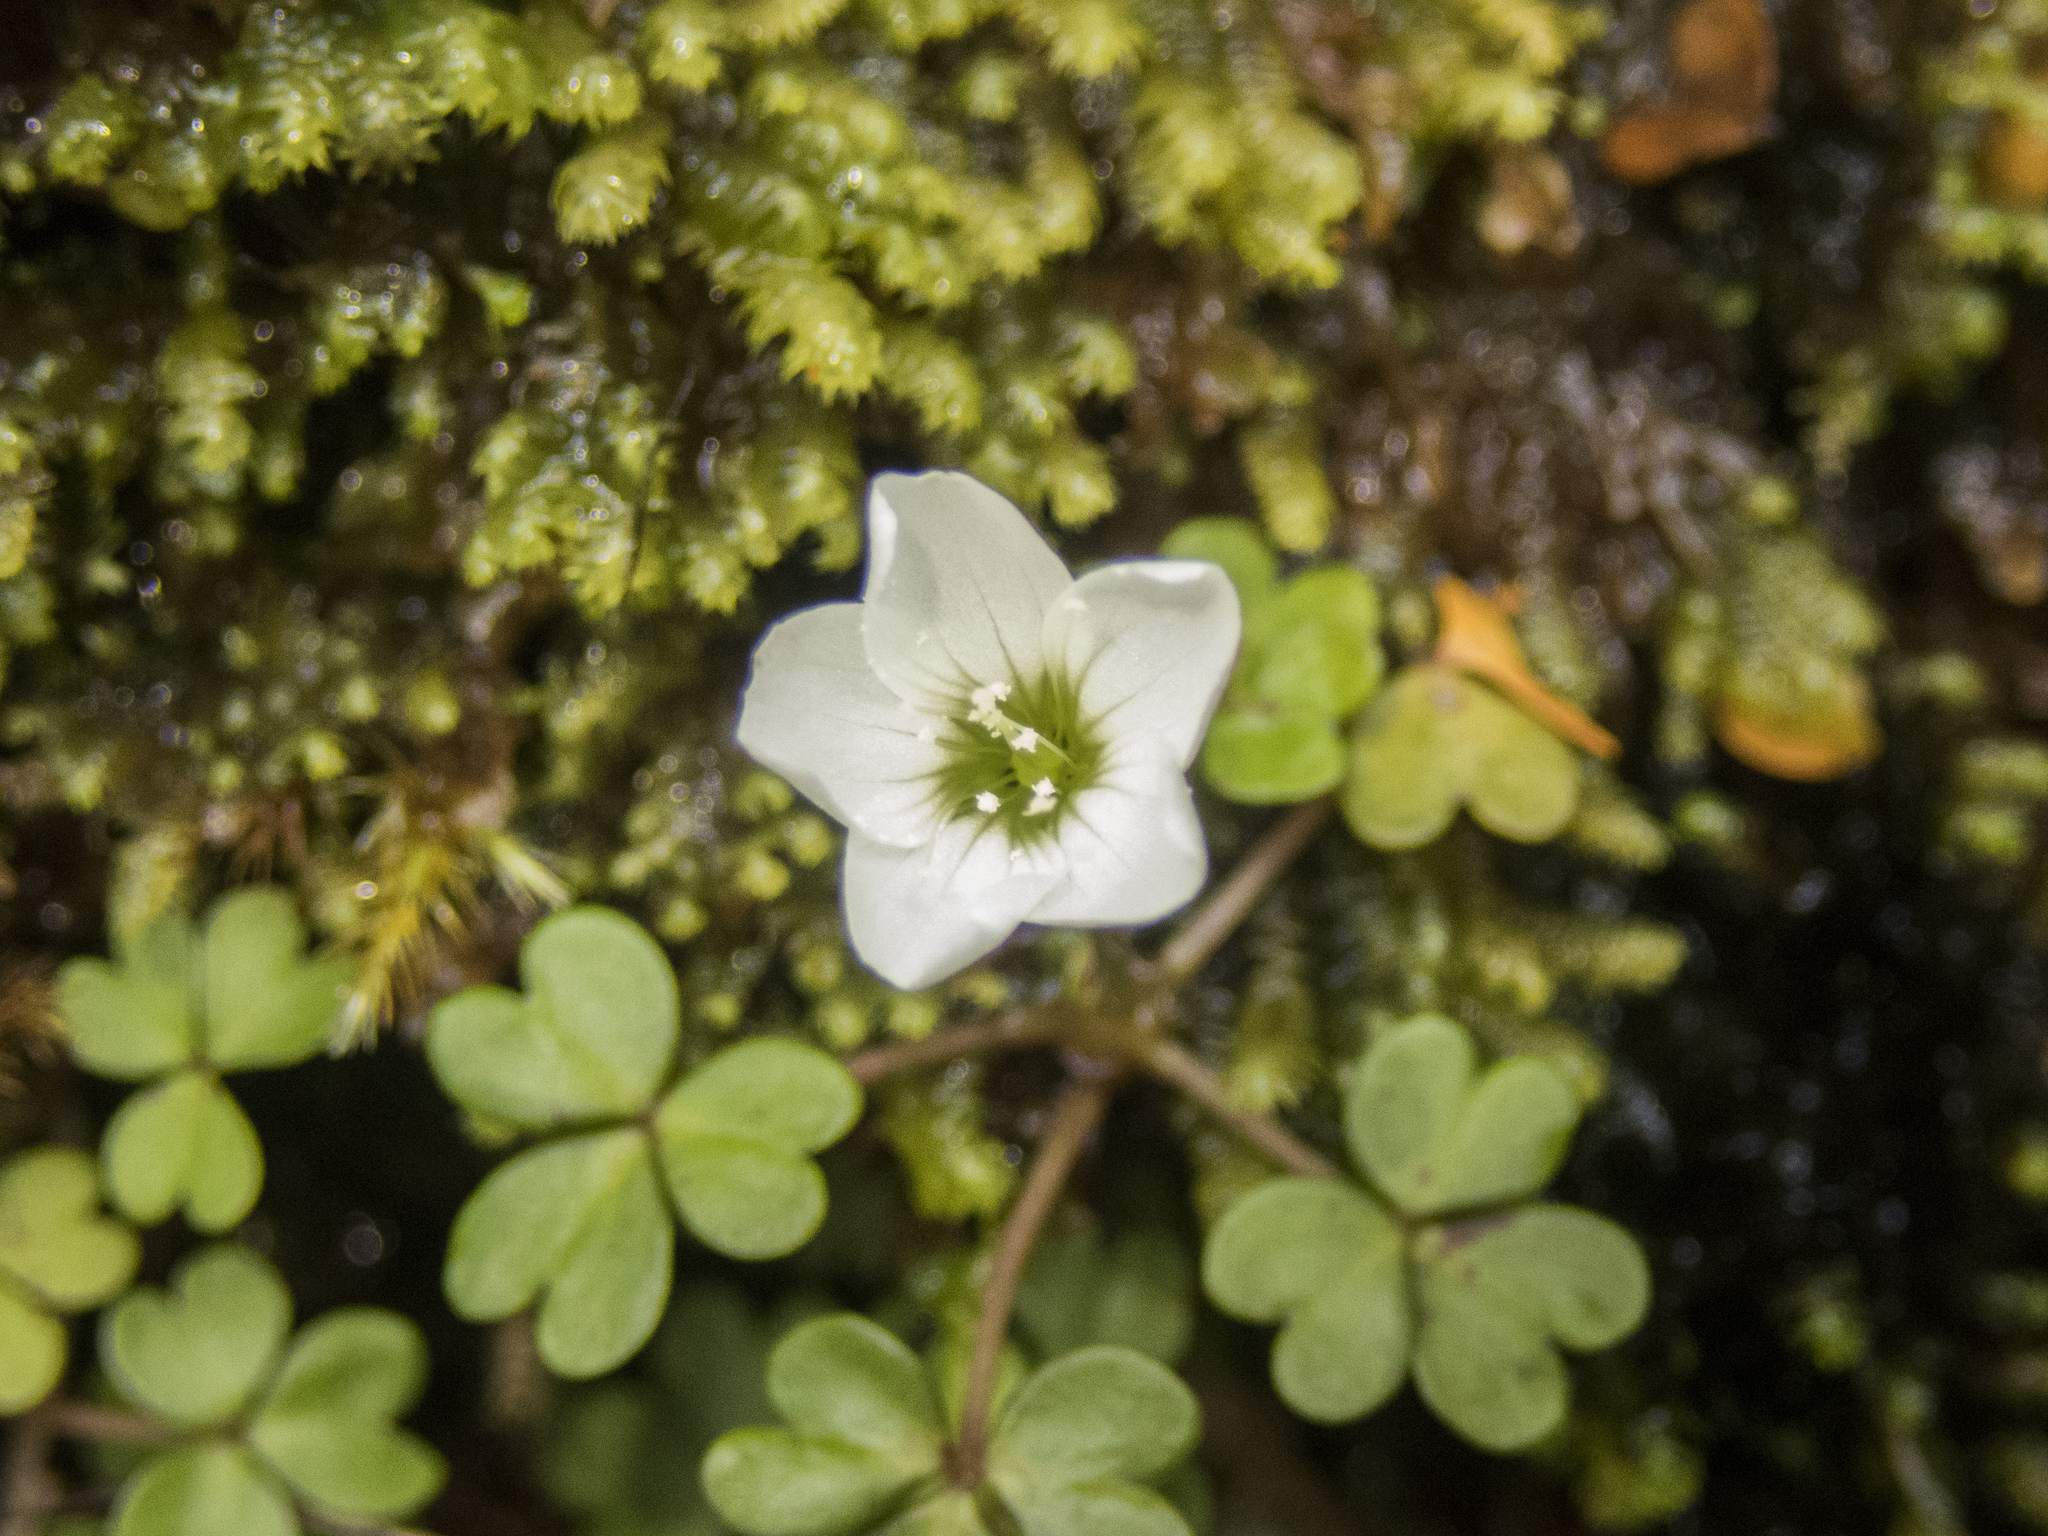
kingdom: Plantae
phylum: Tracheophyta
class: Magnoliopsida
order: Oxalidales
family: Oxalidaceae
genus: Oxalis
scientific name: Oxalis magellanica
